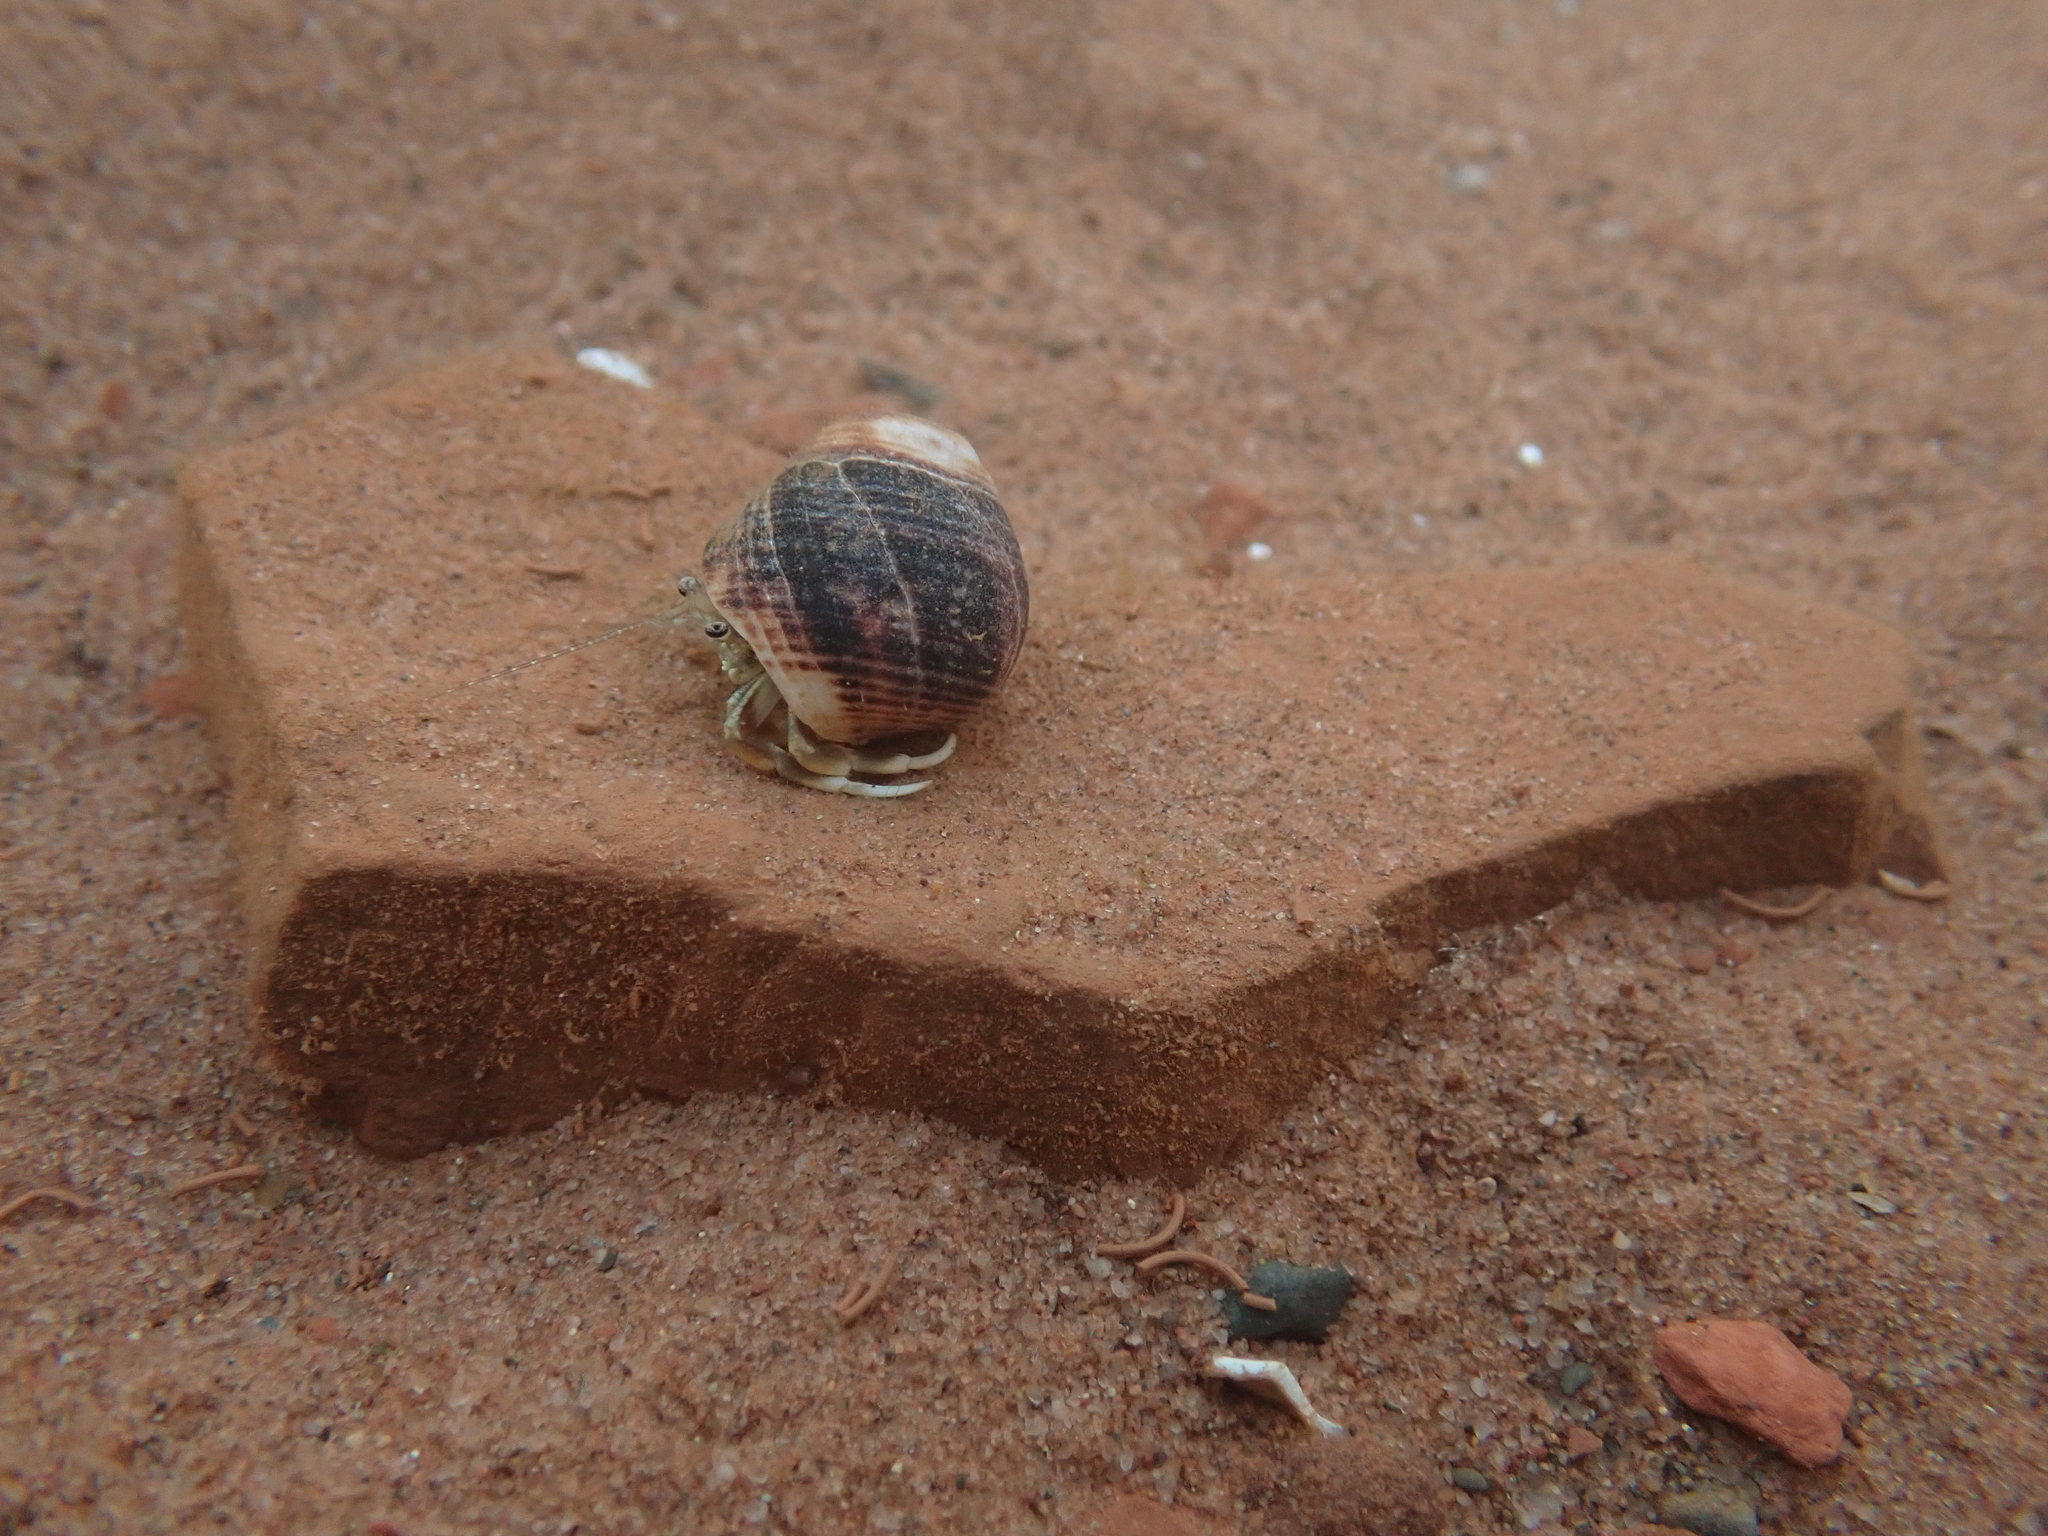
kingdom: Animalia
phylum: Arthropoda
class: Malacostraca
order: Decapoda
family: Paguridae
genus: Pagurus
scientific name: Pagurus longicarpus
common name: Long-armed hermit crab
